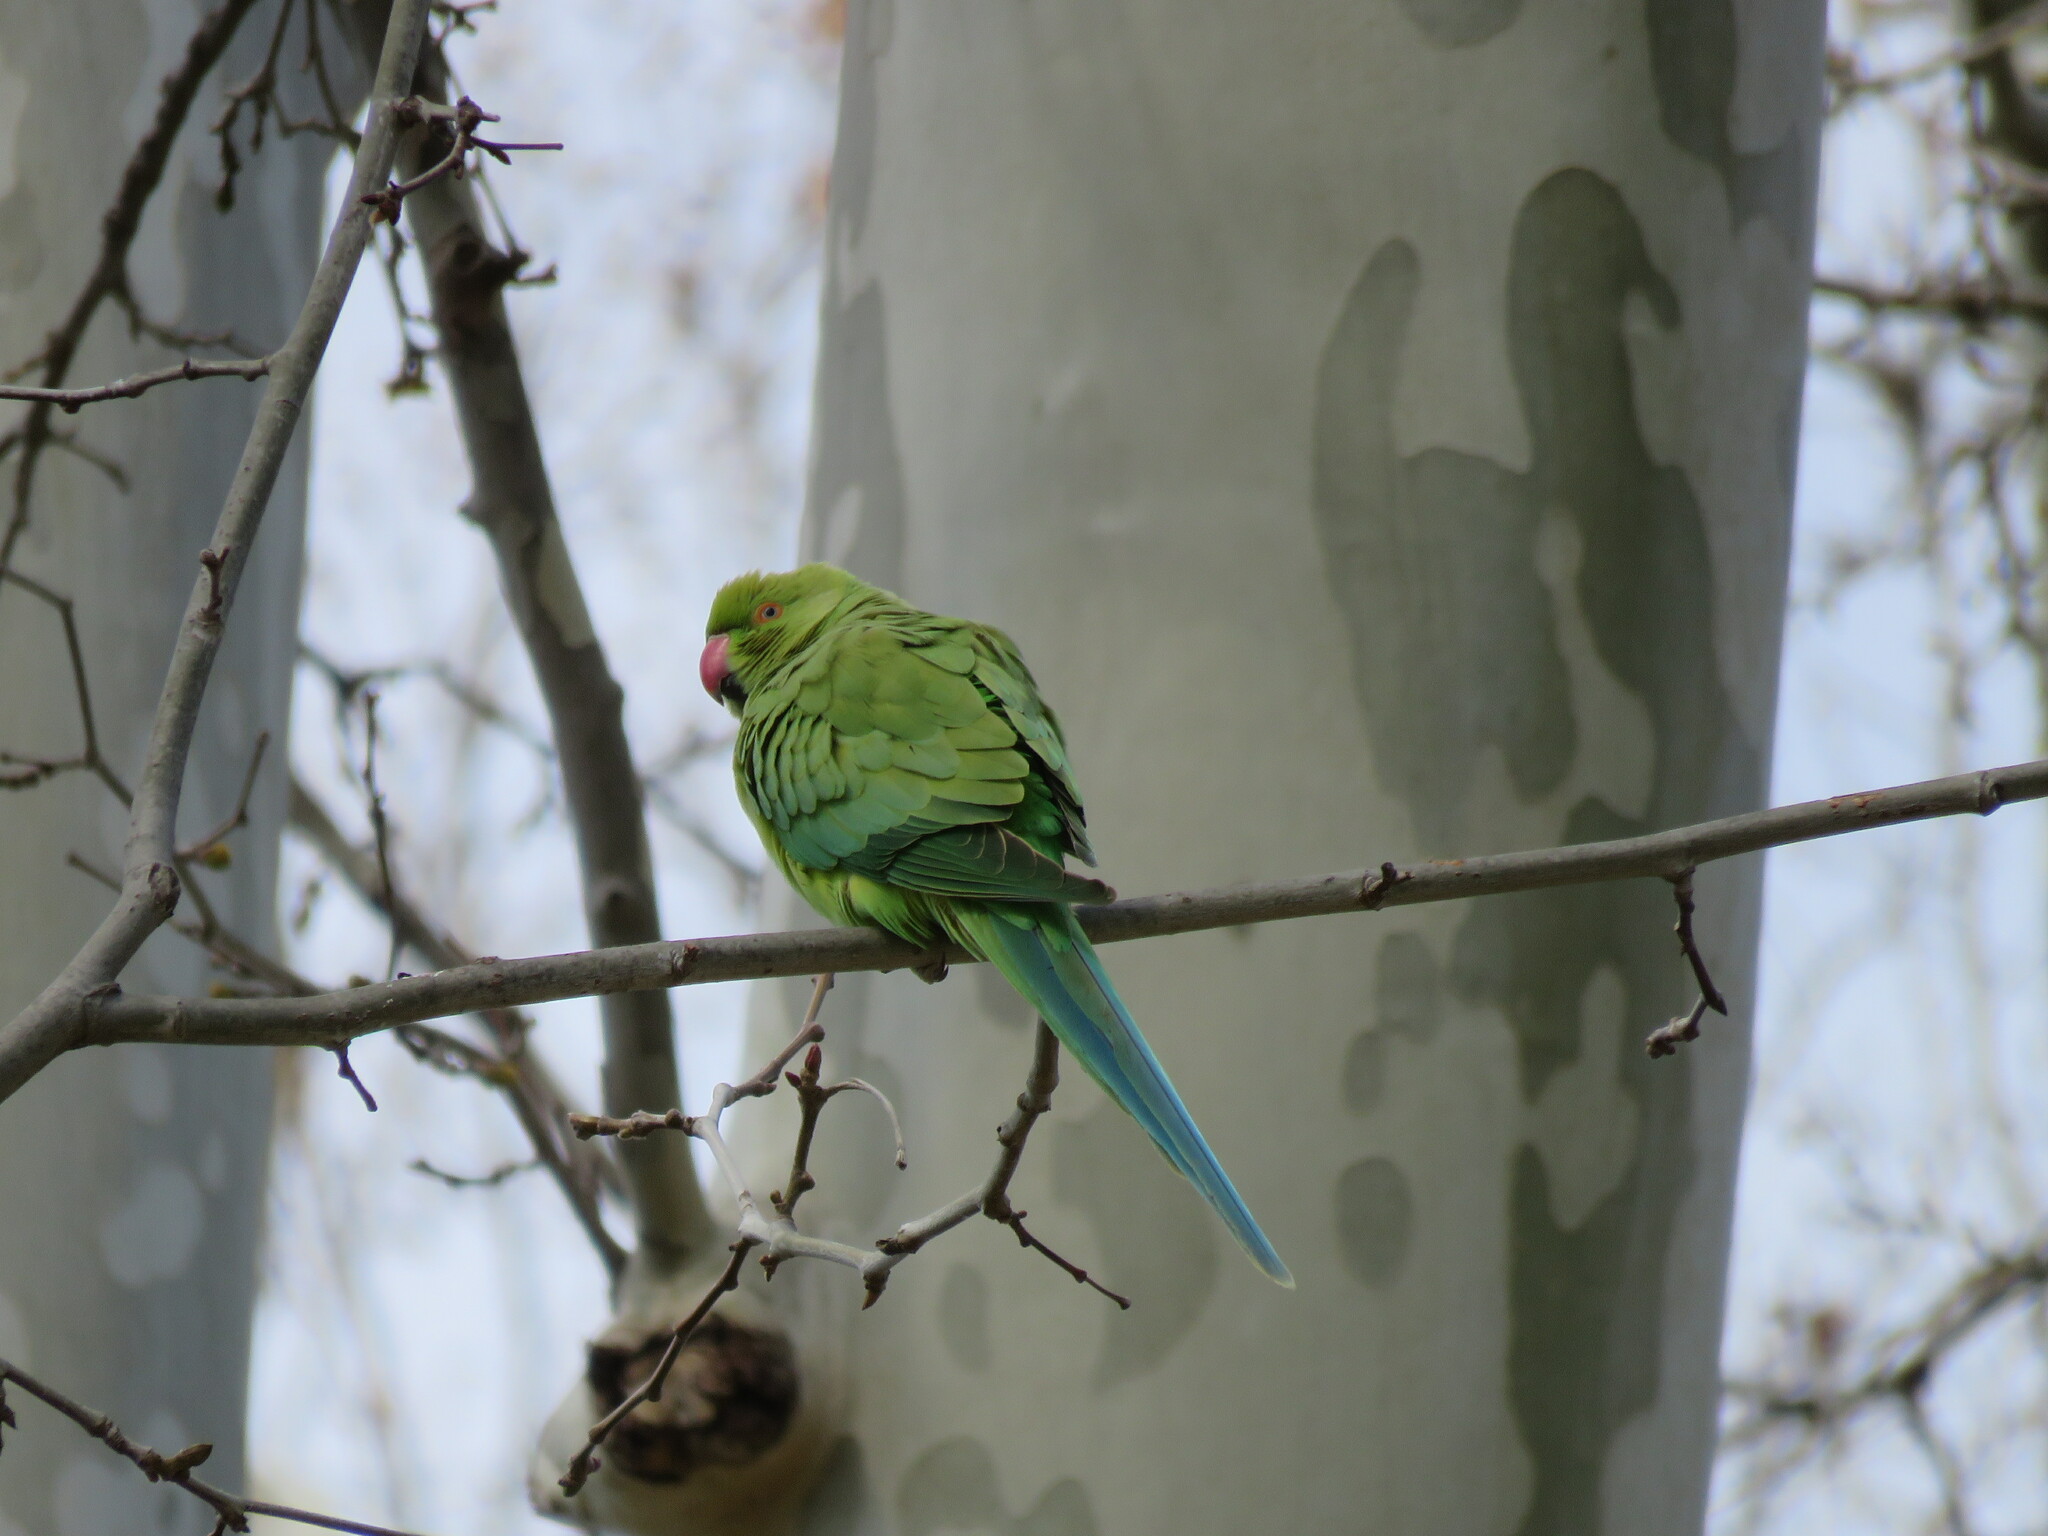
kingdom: Animalia
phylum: Chordata
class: Aves
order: Psittaciformes
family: Psittacidae
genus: Psittacula
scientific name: Psittacula krameri
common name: Rose-ringed parakeet
